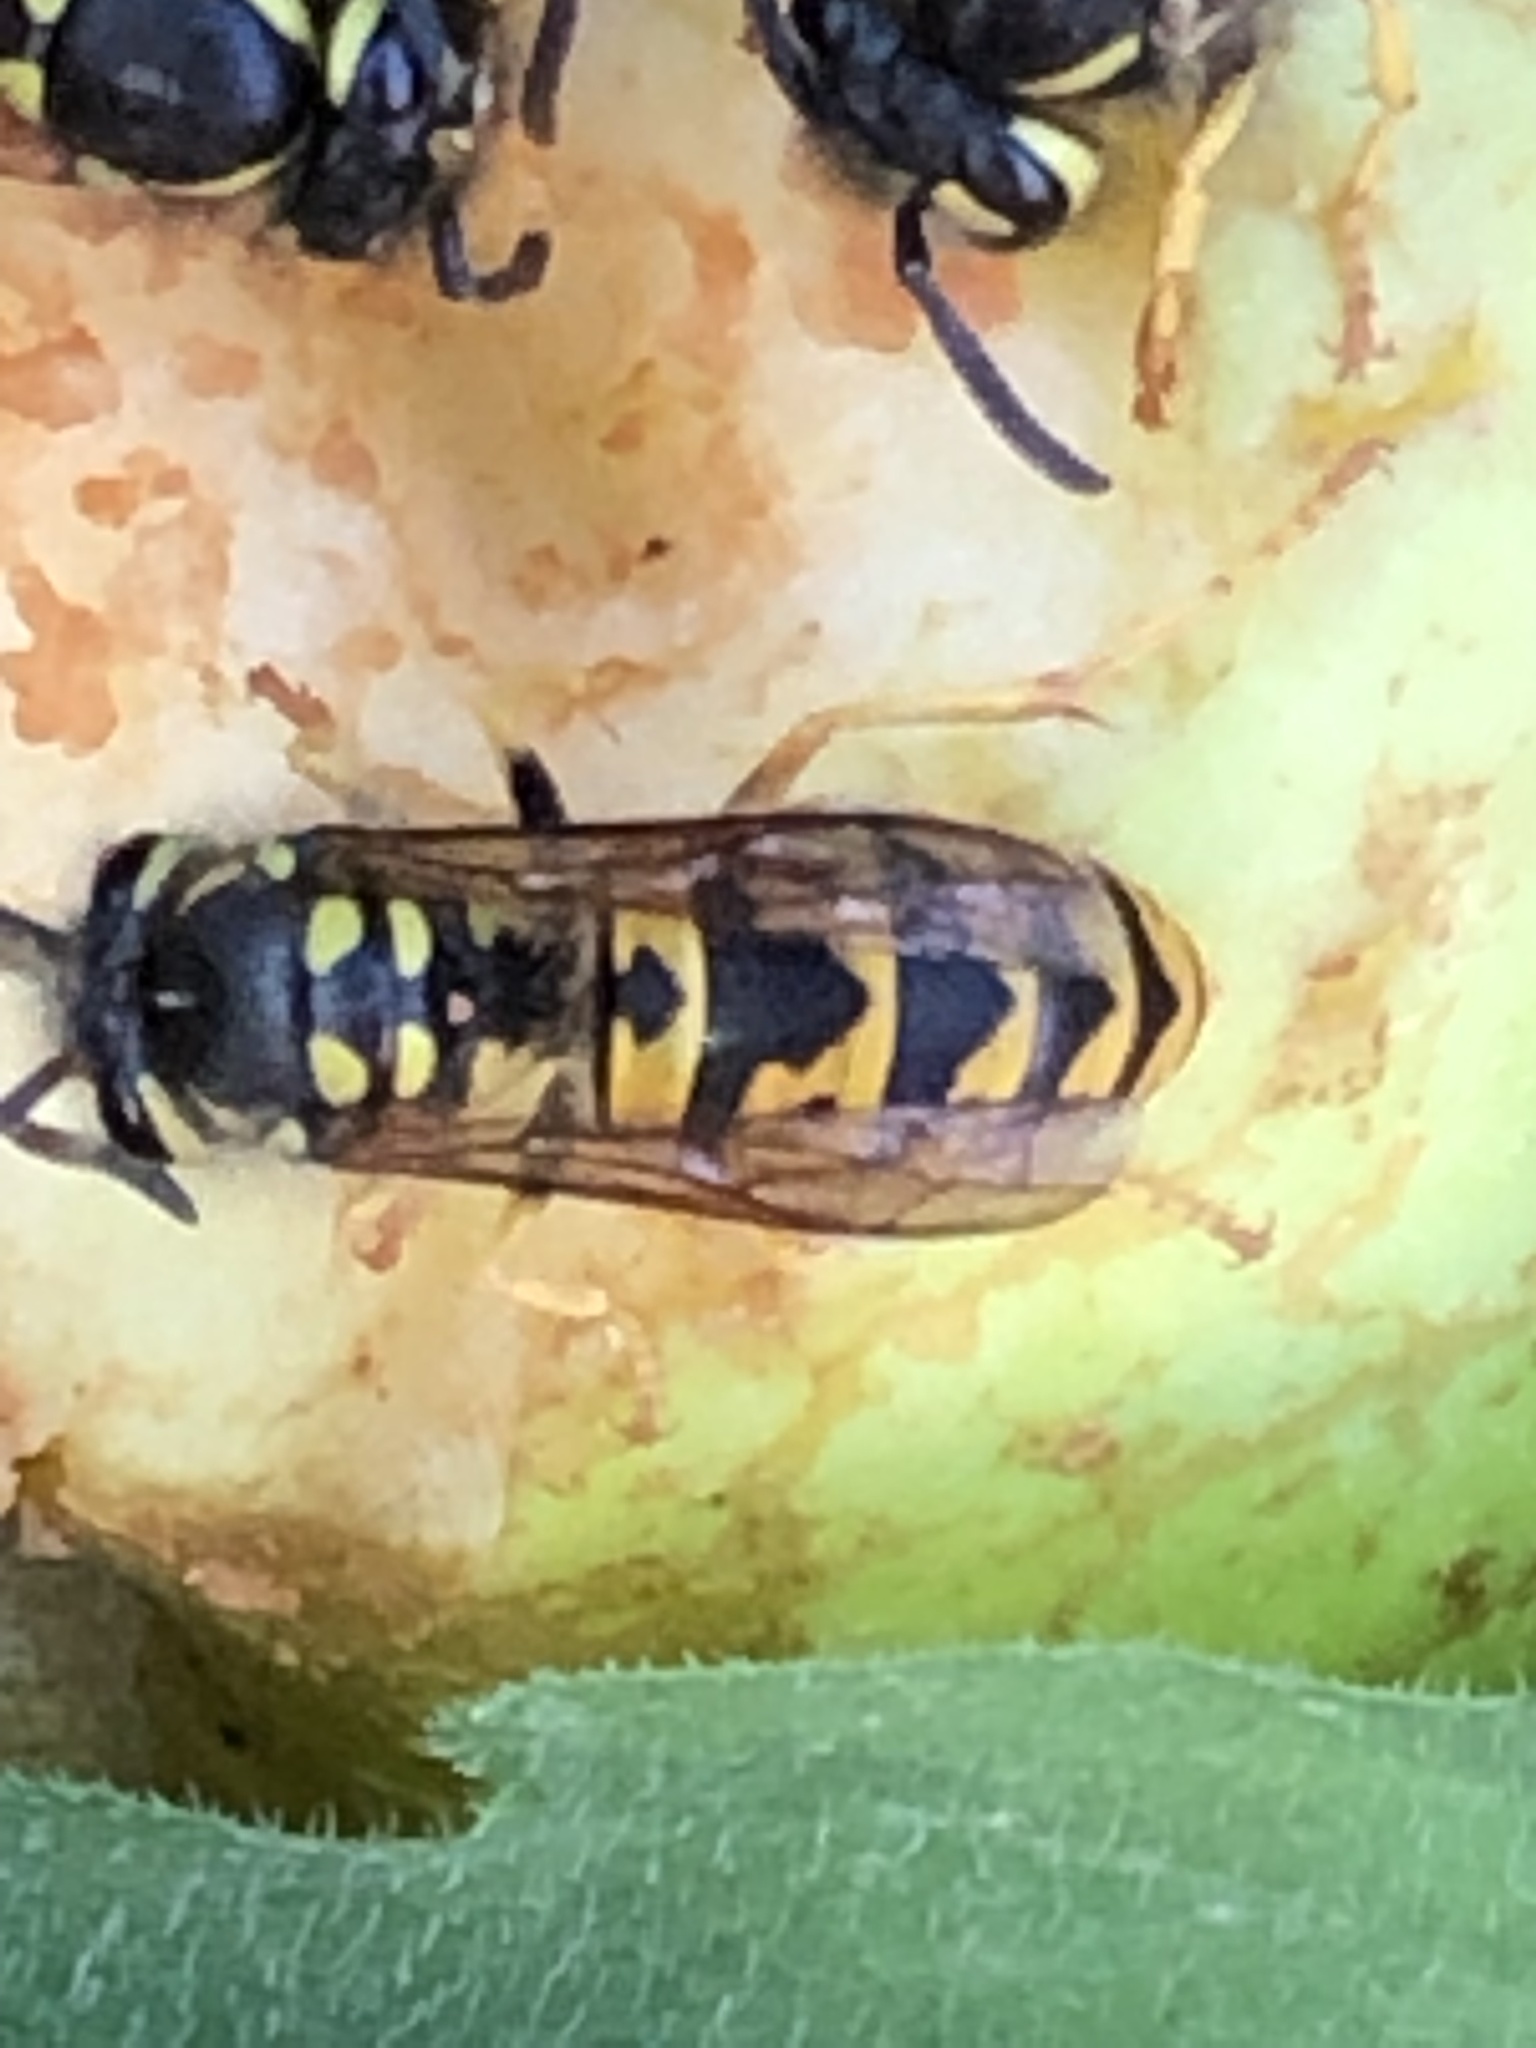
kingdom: Animalia
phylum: Arthropoda
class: Insecta
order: Hymenoptera
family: Vespidae
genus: Vespula
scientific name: Vespula germanica
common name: German wasp
